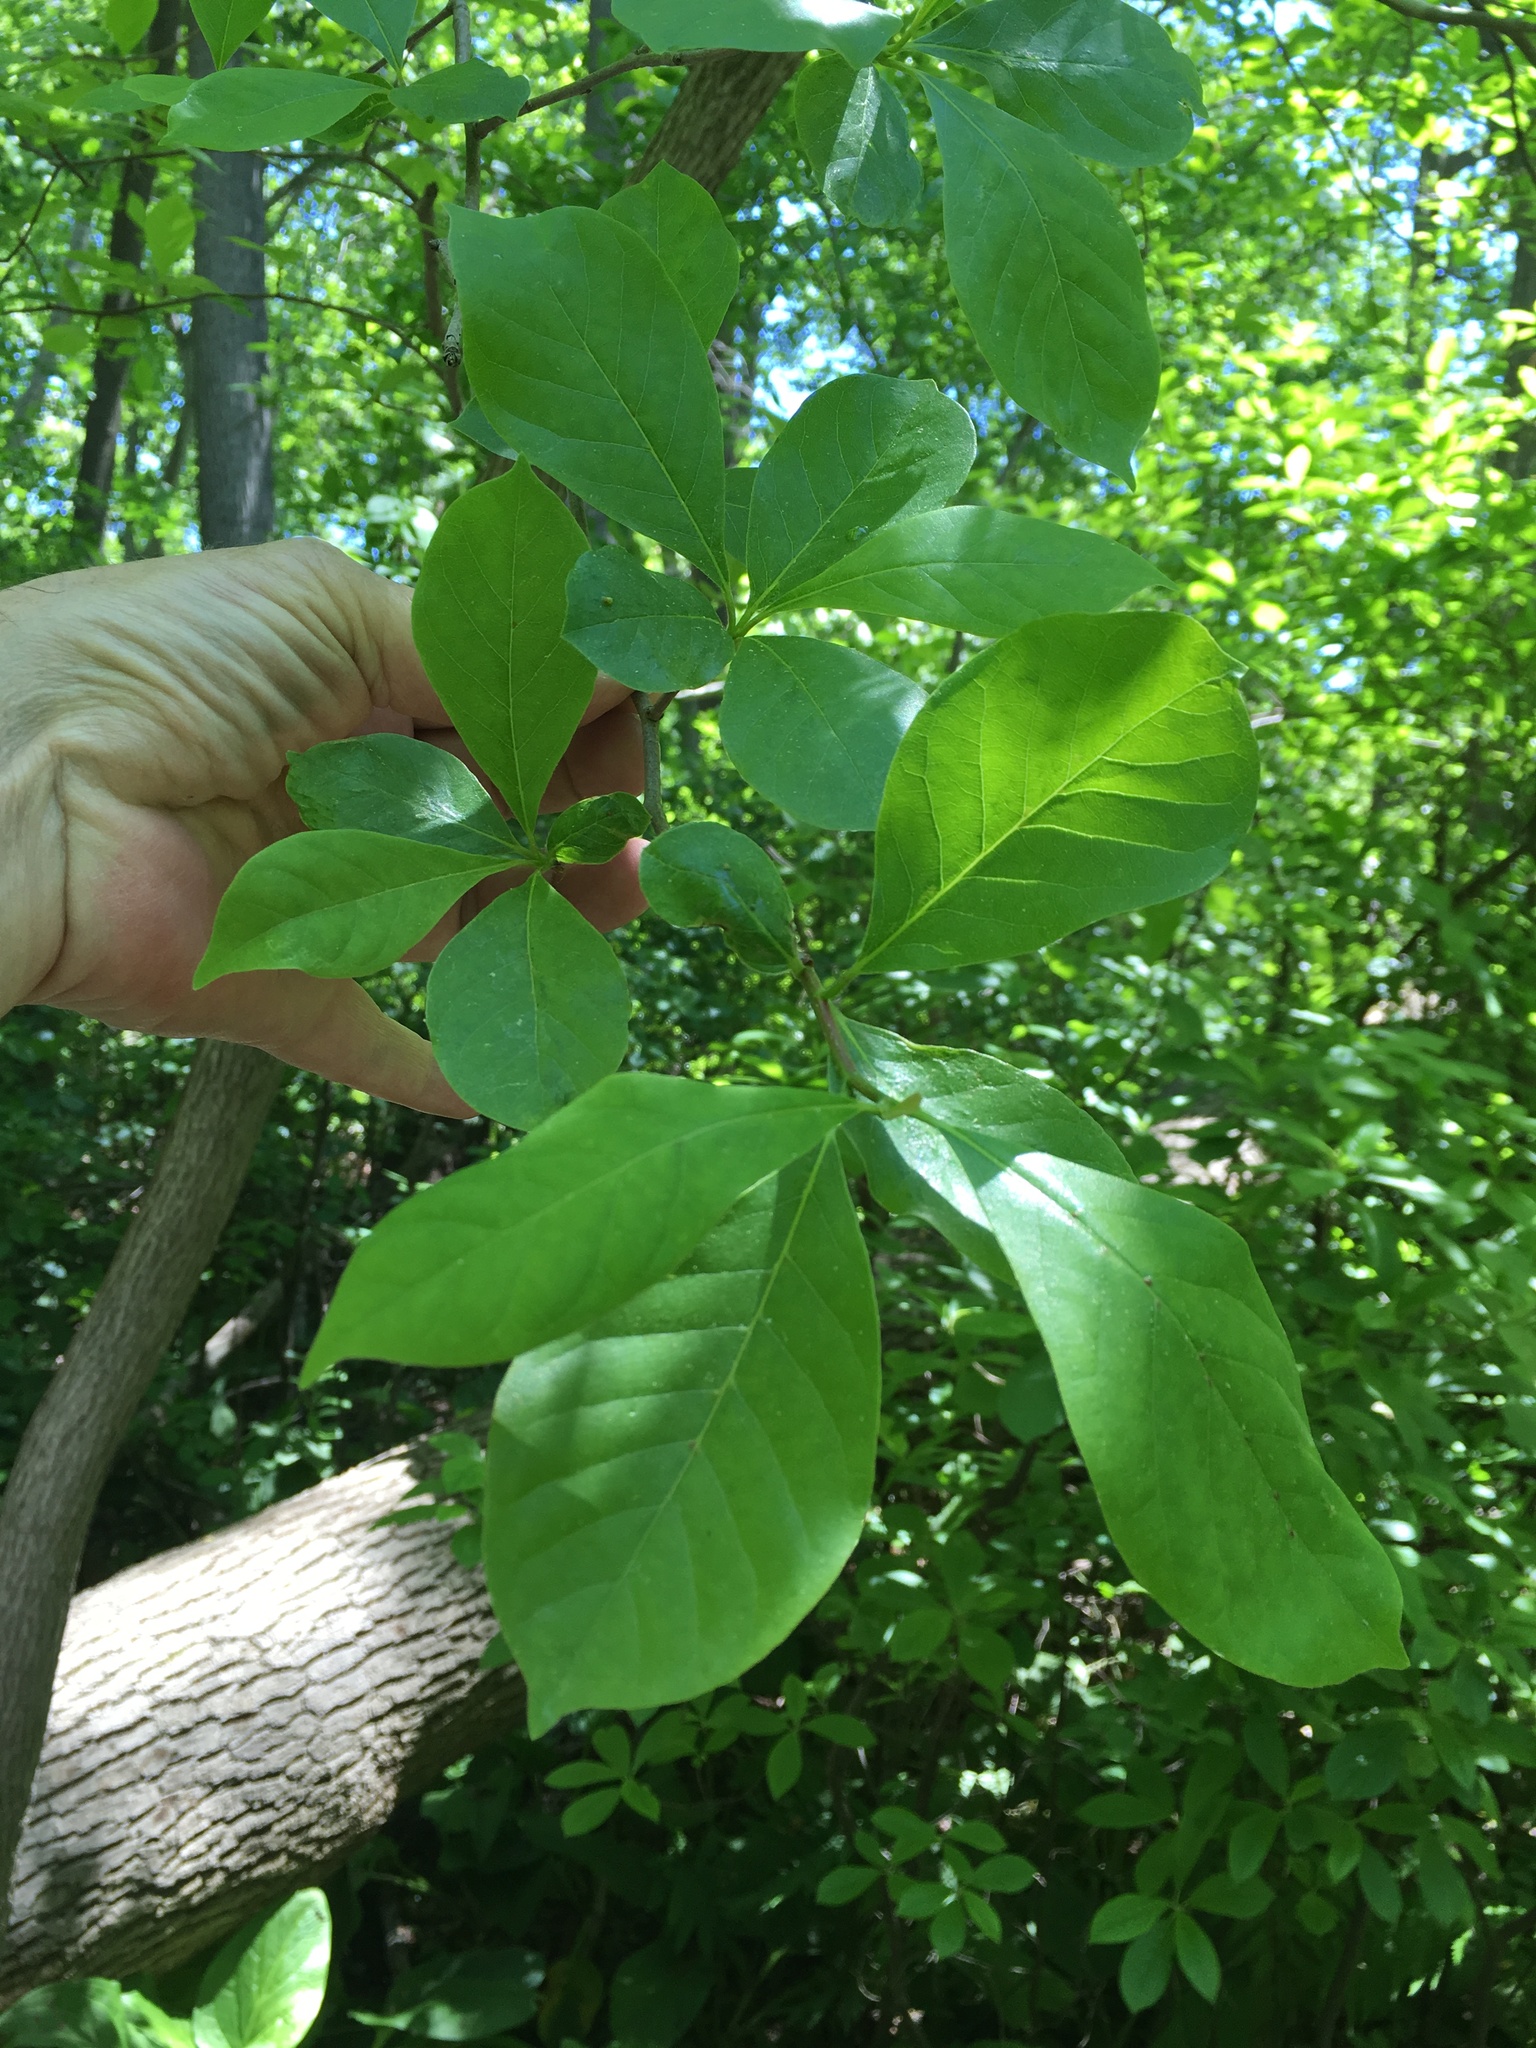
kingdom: Plantae
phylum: Tracheophyta
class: Magnoliopsida
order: Cornales
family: Nyssaceae
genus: Nyssa
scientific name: Nyssa sylvatica
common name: Black tupelo
